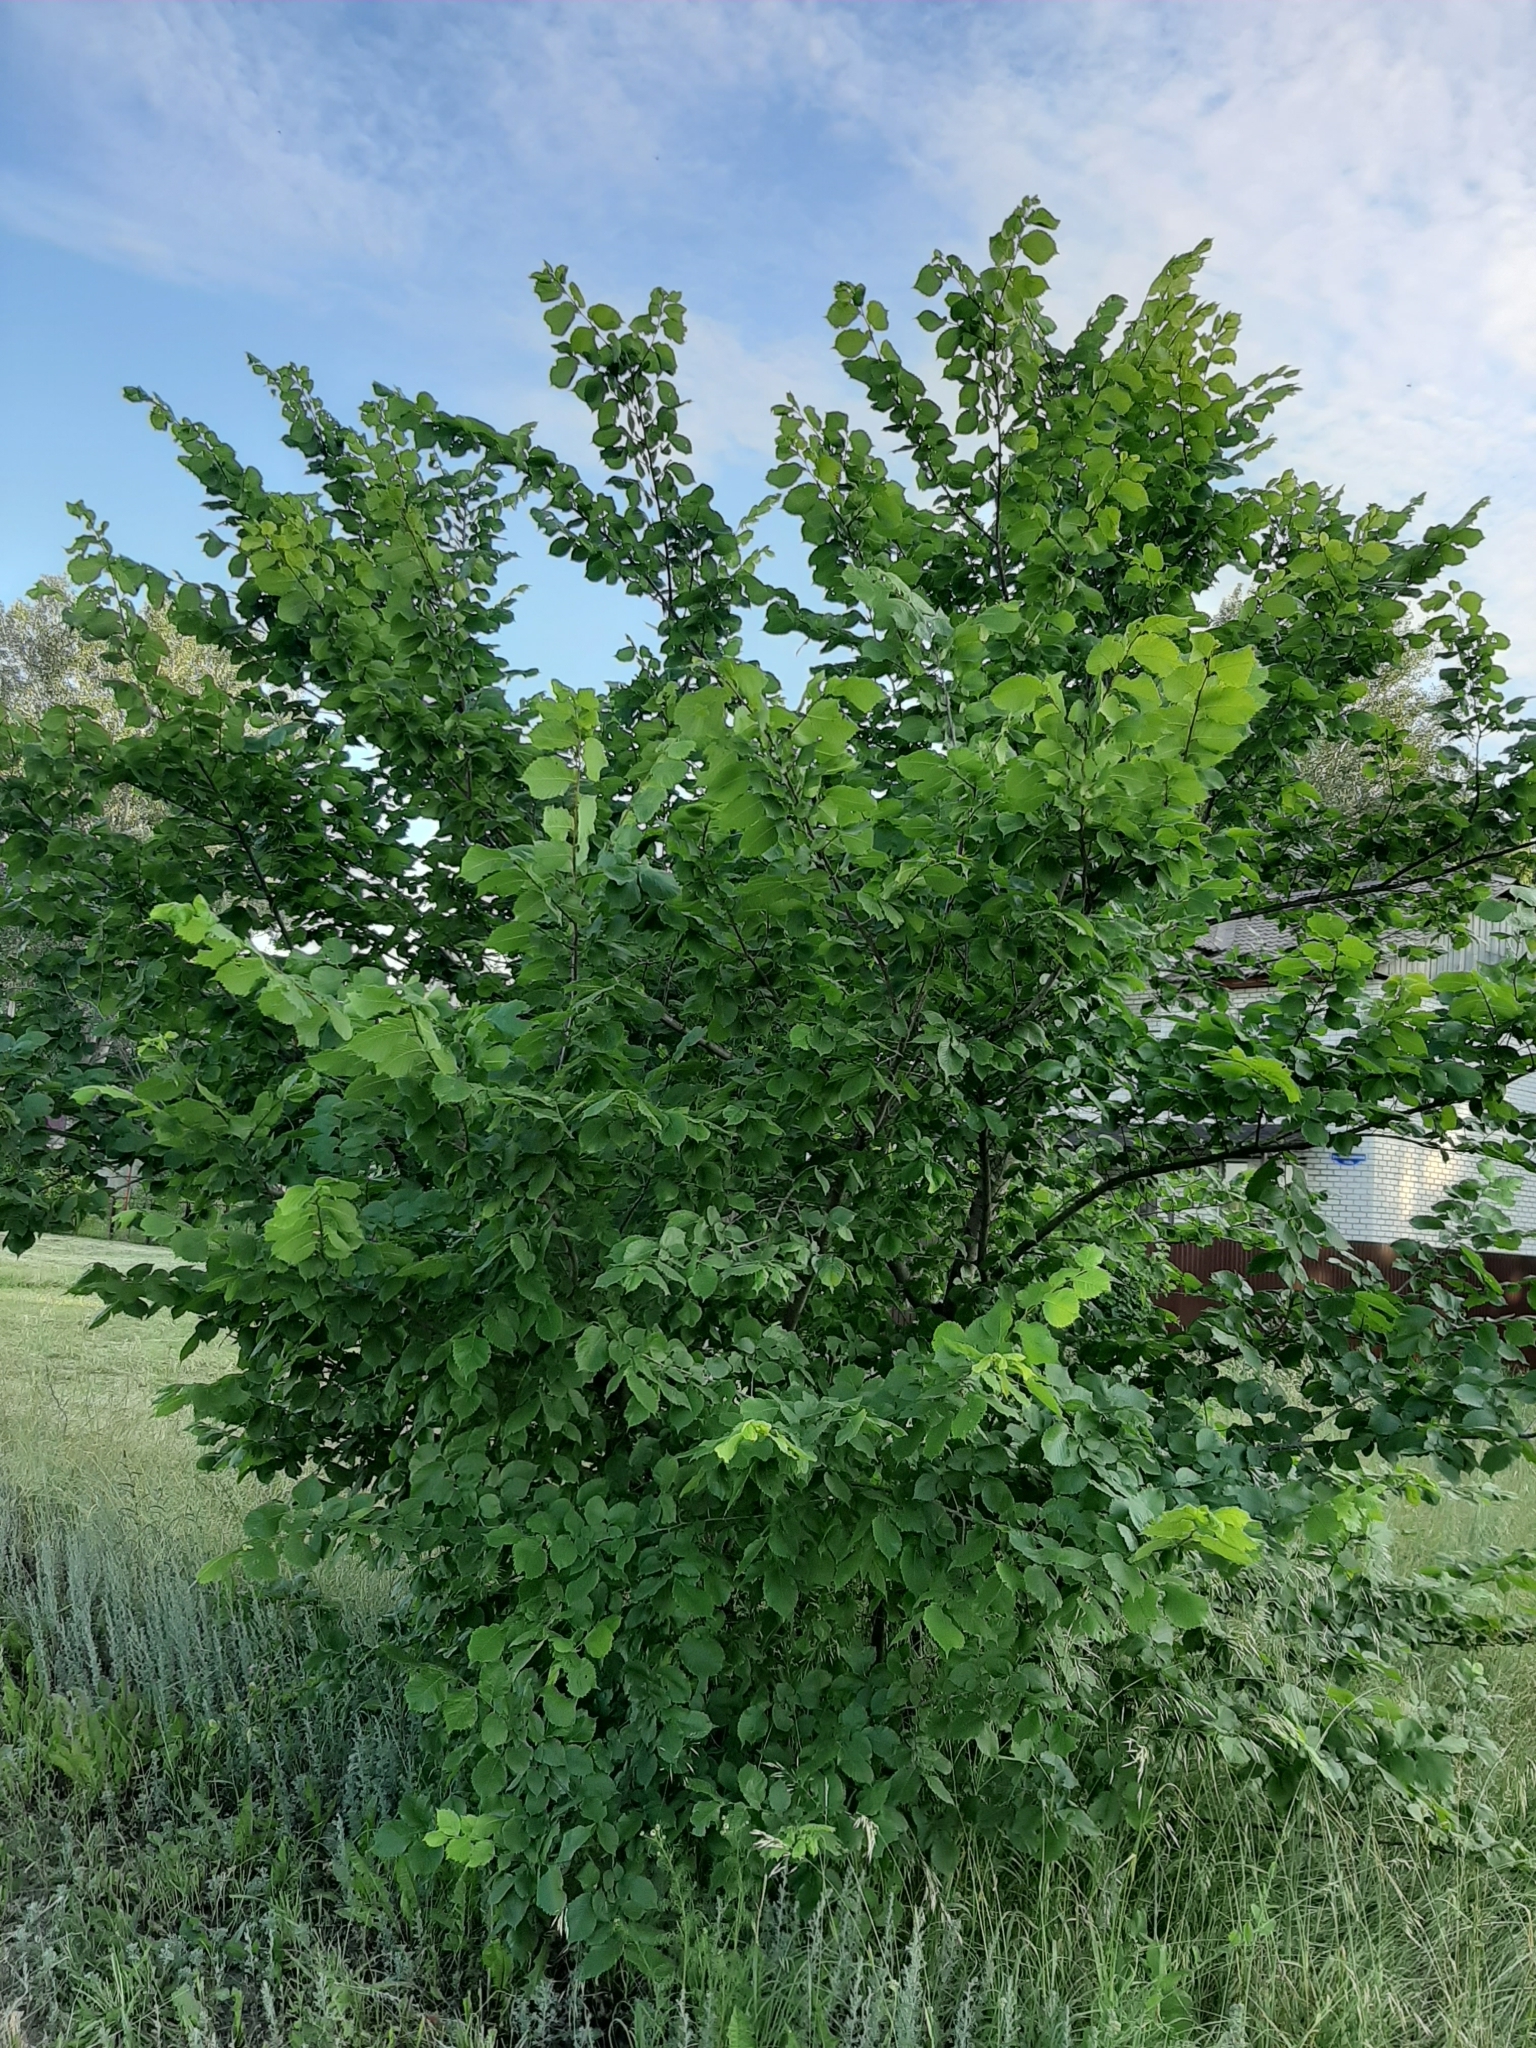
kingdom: Plantae
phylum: Tracheophyta
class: Magnoliopsida
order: Rosales
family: Ulmaceae
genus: Ulmus
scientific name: Ulmus laevis
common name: European white-elm
